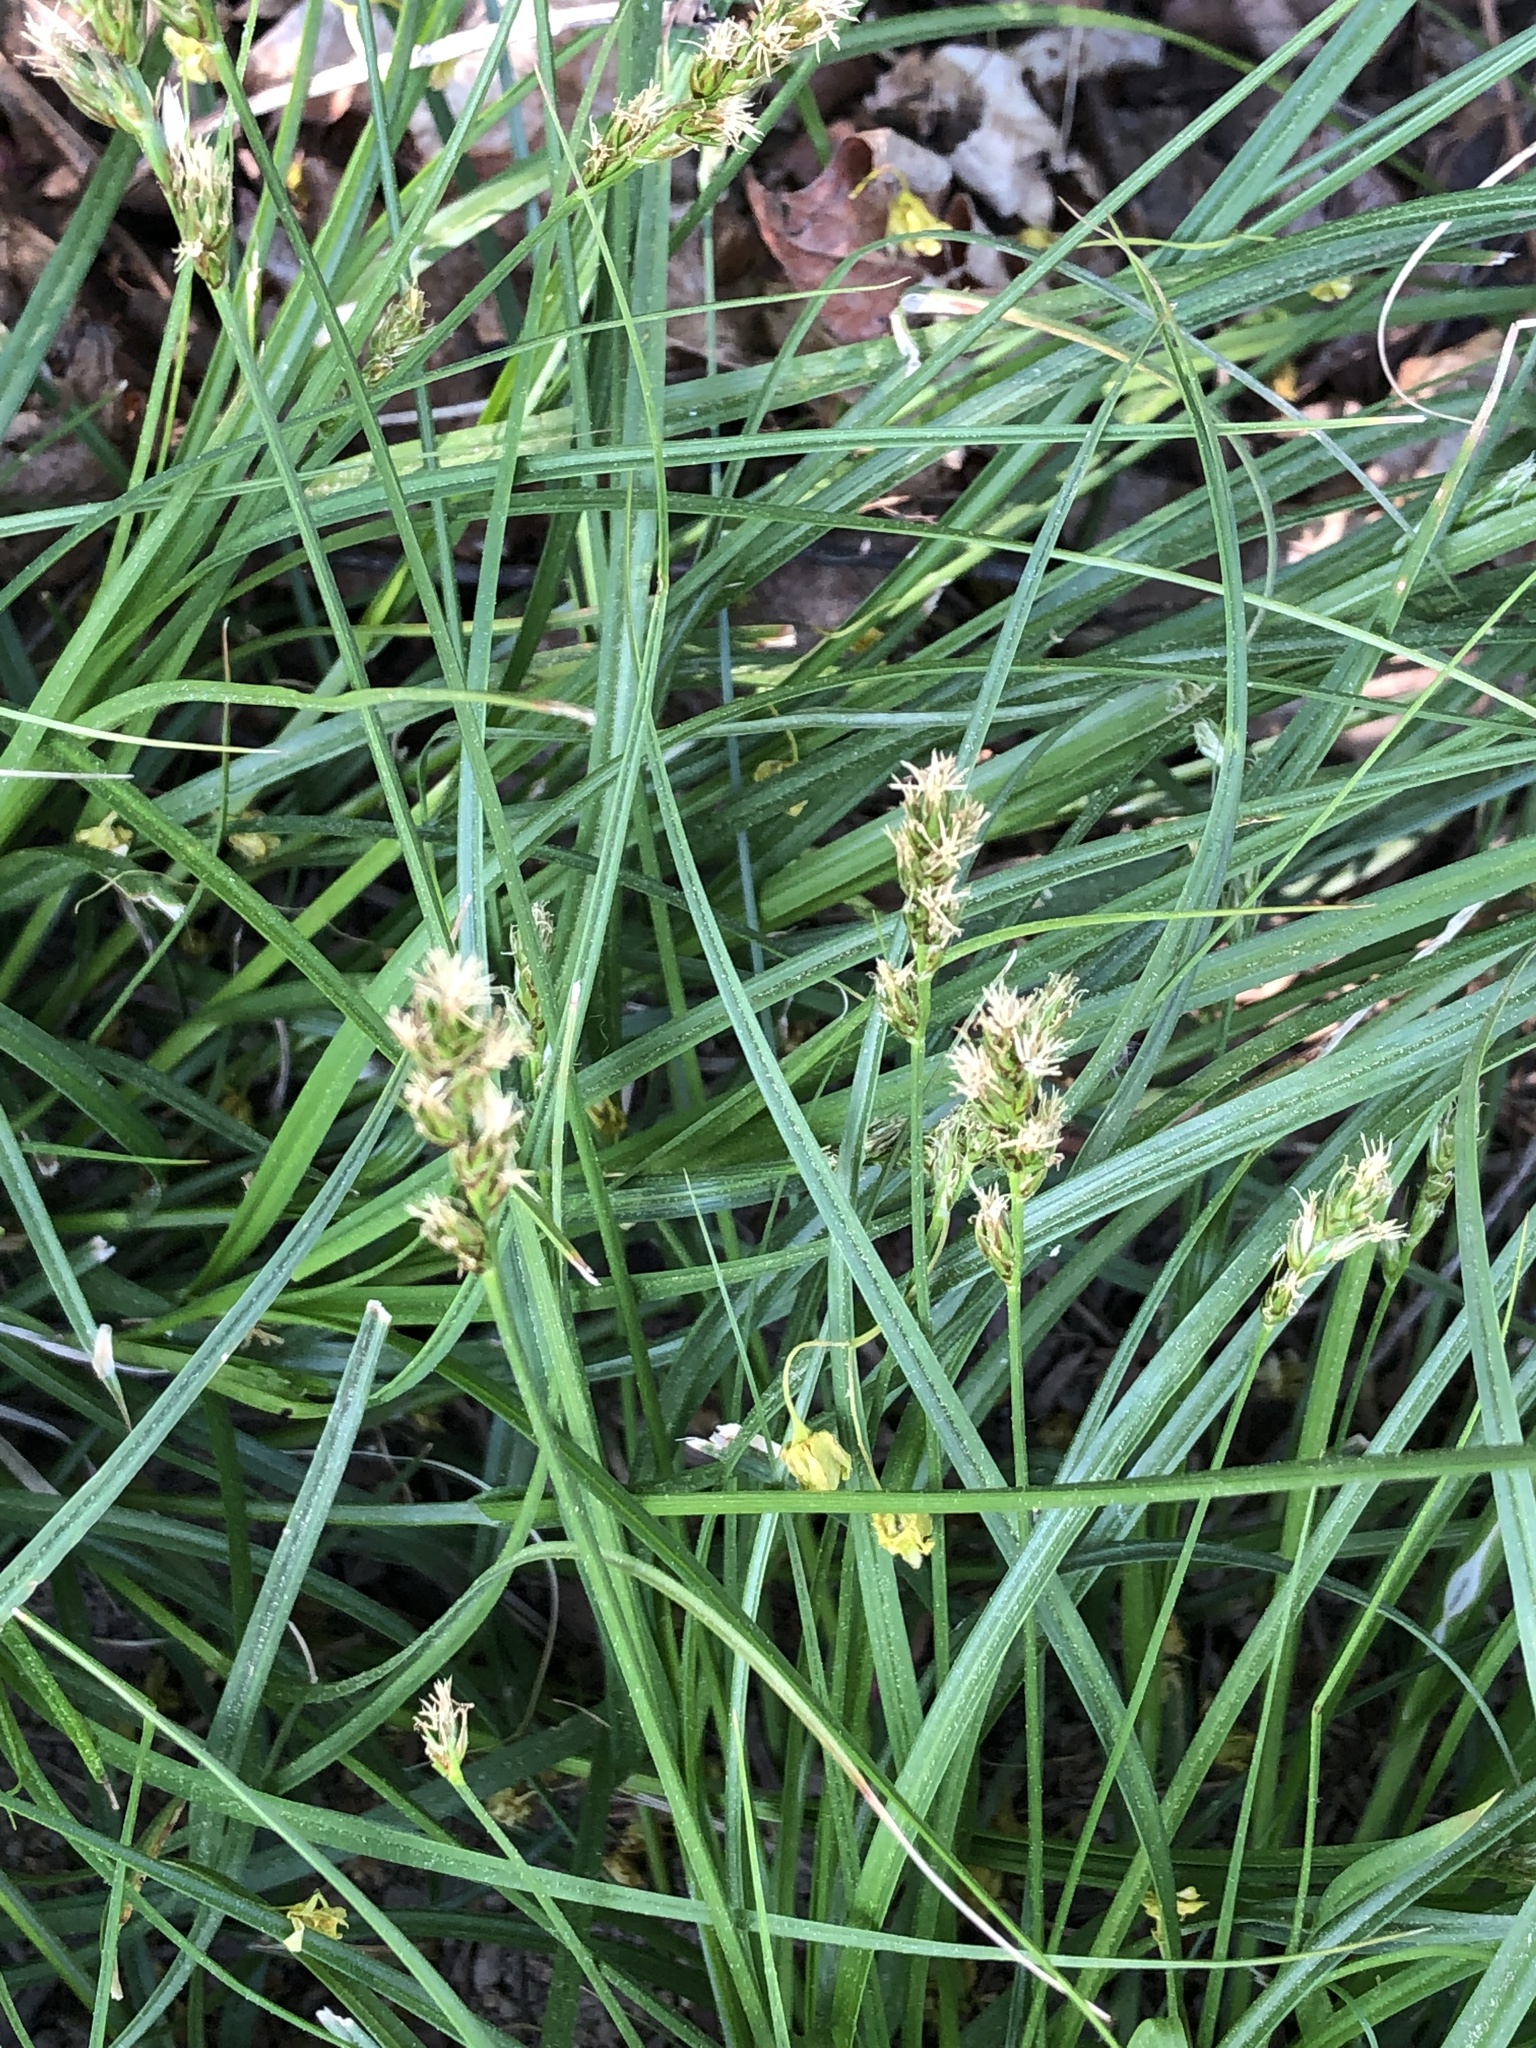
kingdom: Plantae
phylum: Tracheophyta
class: Liliopsida
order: Poales
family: Cyperaceae
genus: Carex
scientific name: Carex spicata
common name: Spiked sedge
